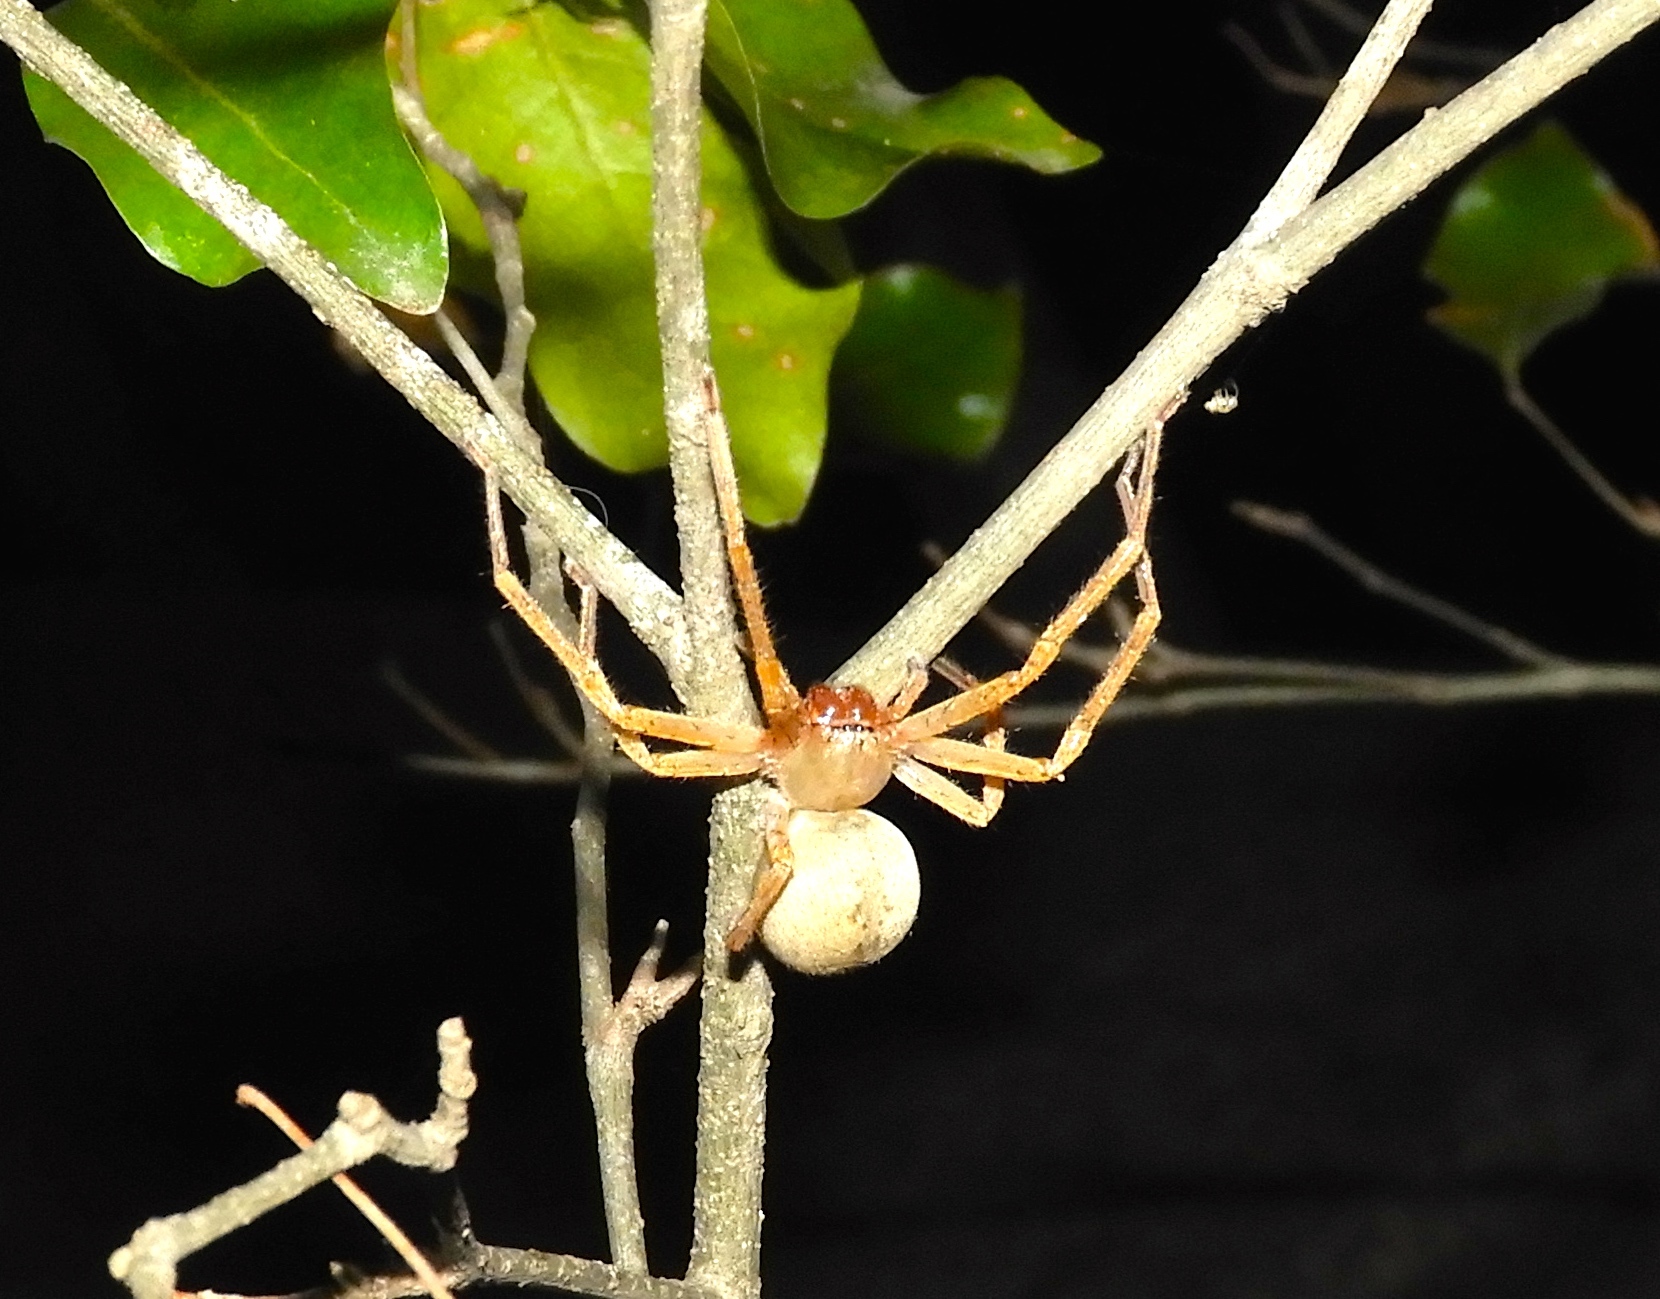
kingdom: Animalia
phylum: Arthropoda
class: Arachnida
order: Araneae
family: Sparassidae
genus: Curicaberis
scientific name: Curicaberis
